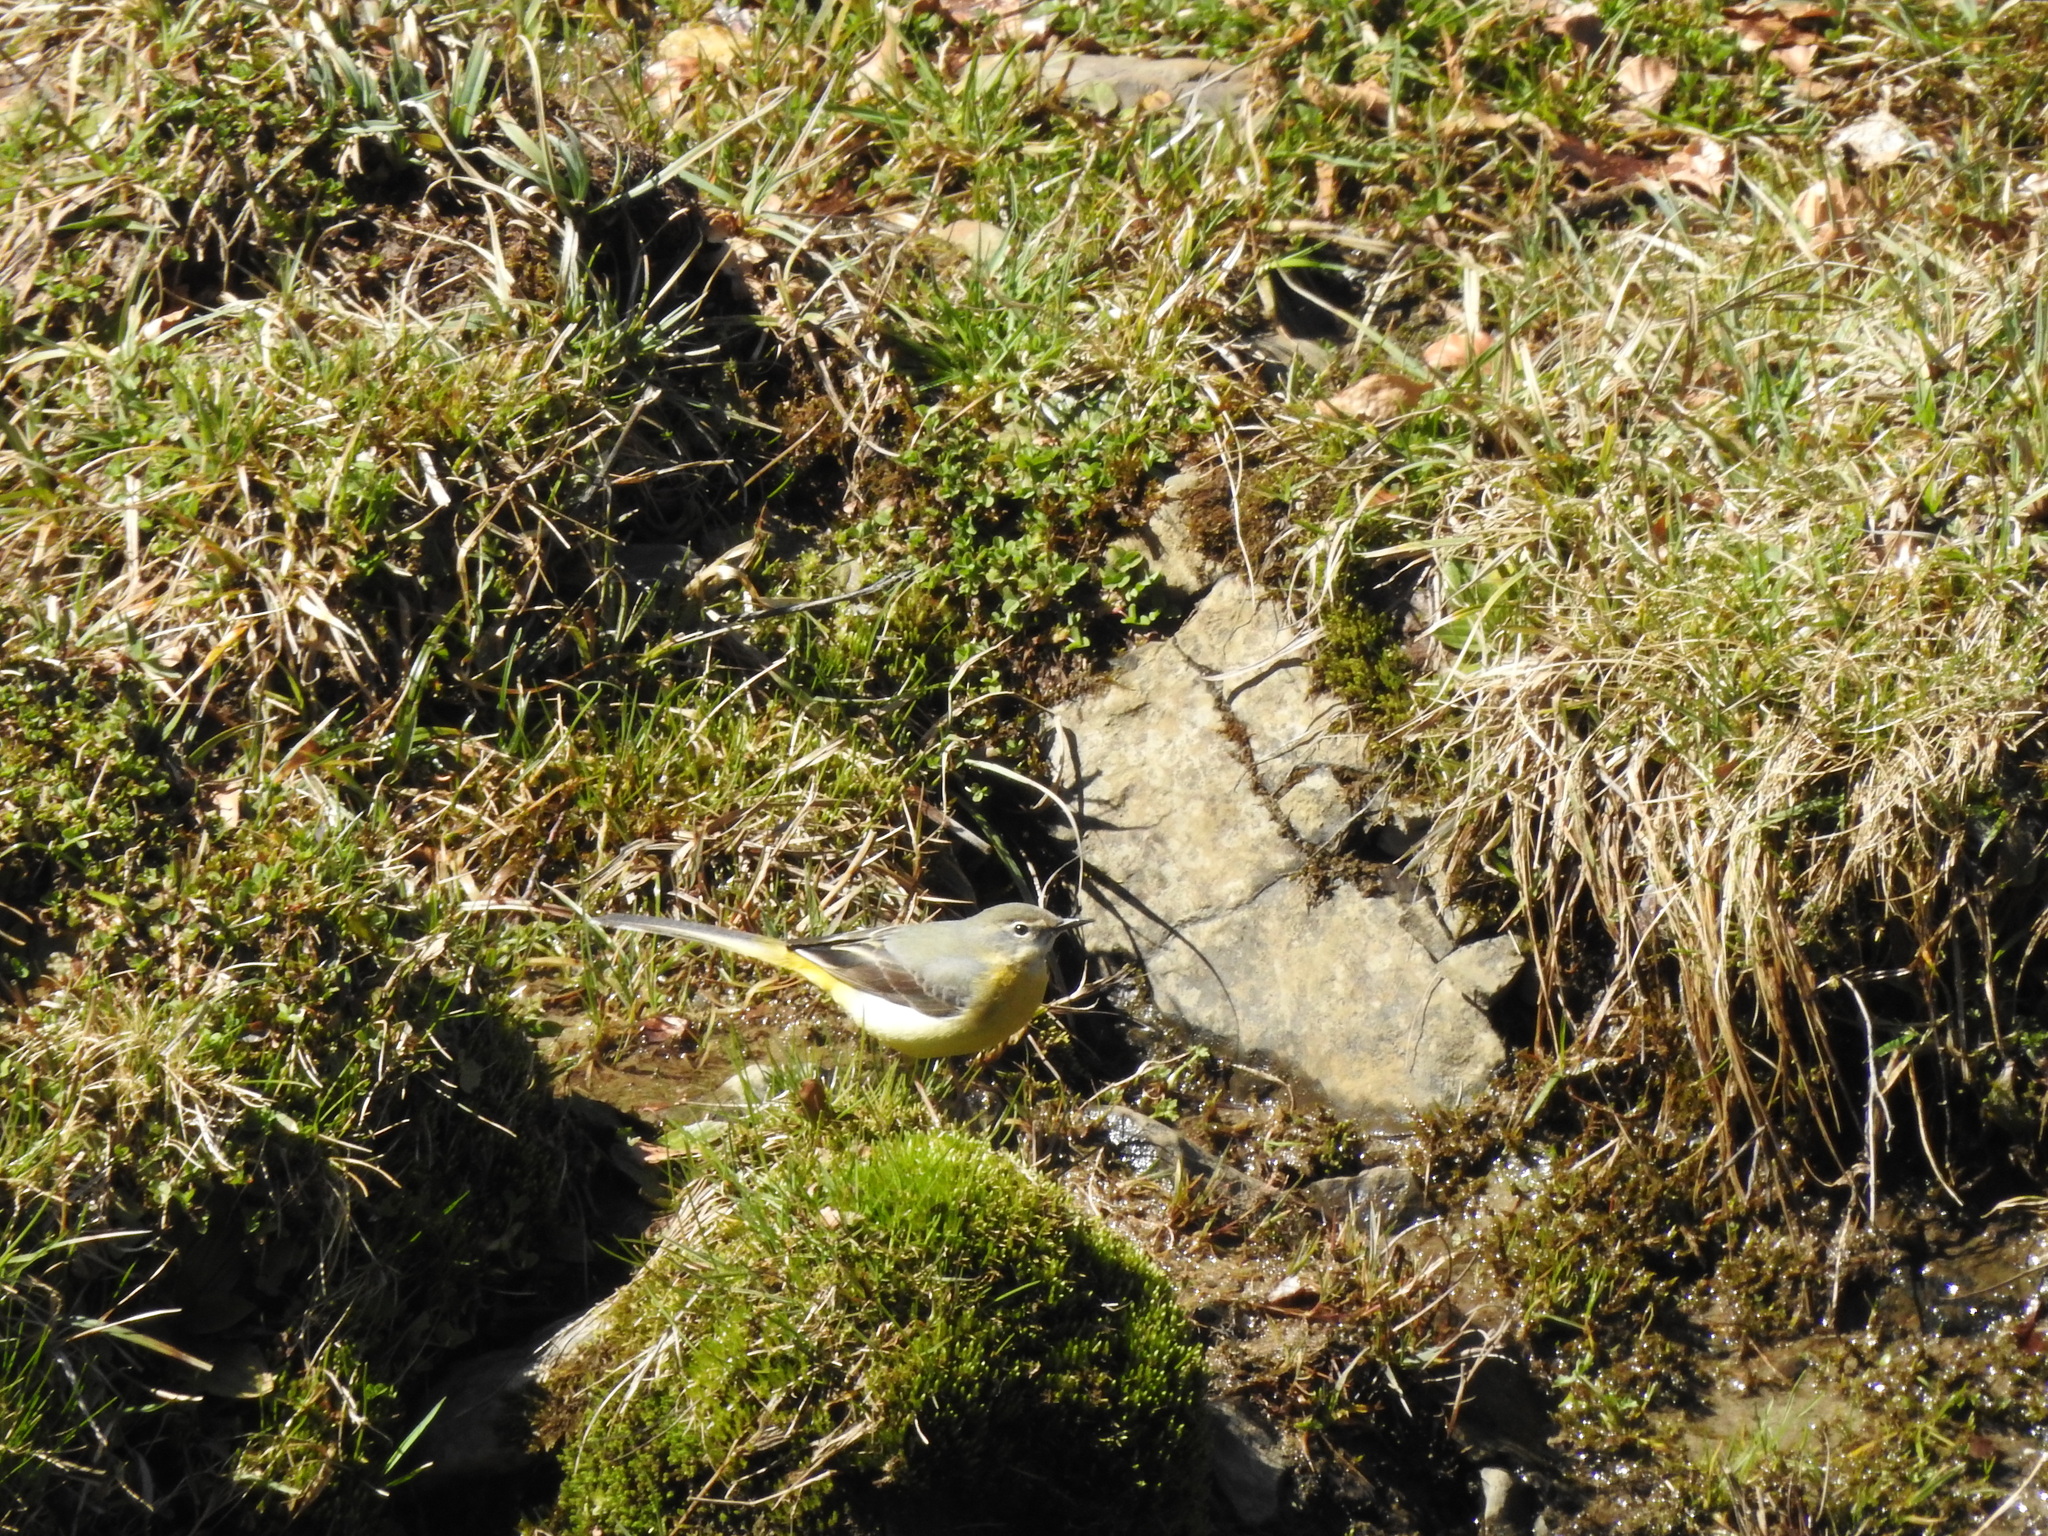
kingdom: Animalia
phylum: Chordata
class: Aves
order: Passeriformes
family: Motacillidae
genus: Motacilla
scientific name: Motacilla cinerea
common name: Grey wagtail
